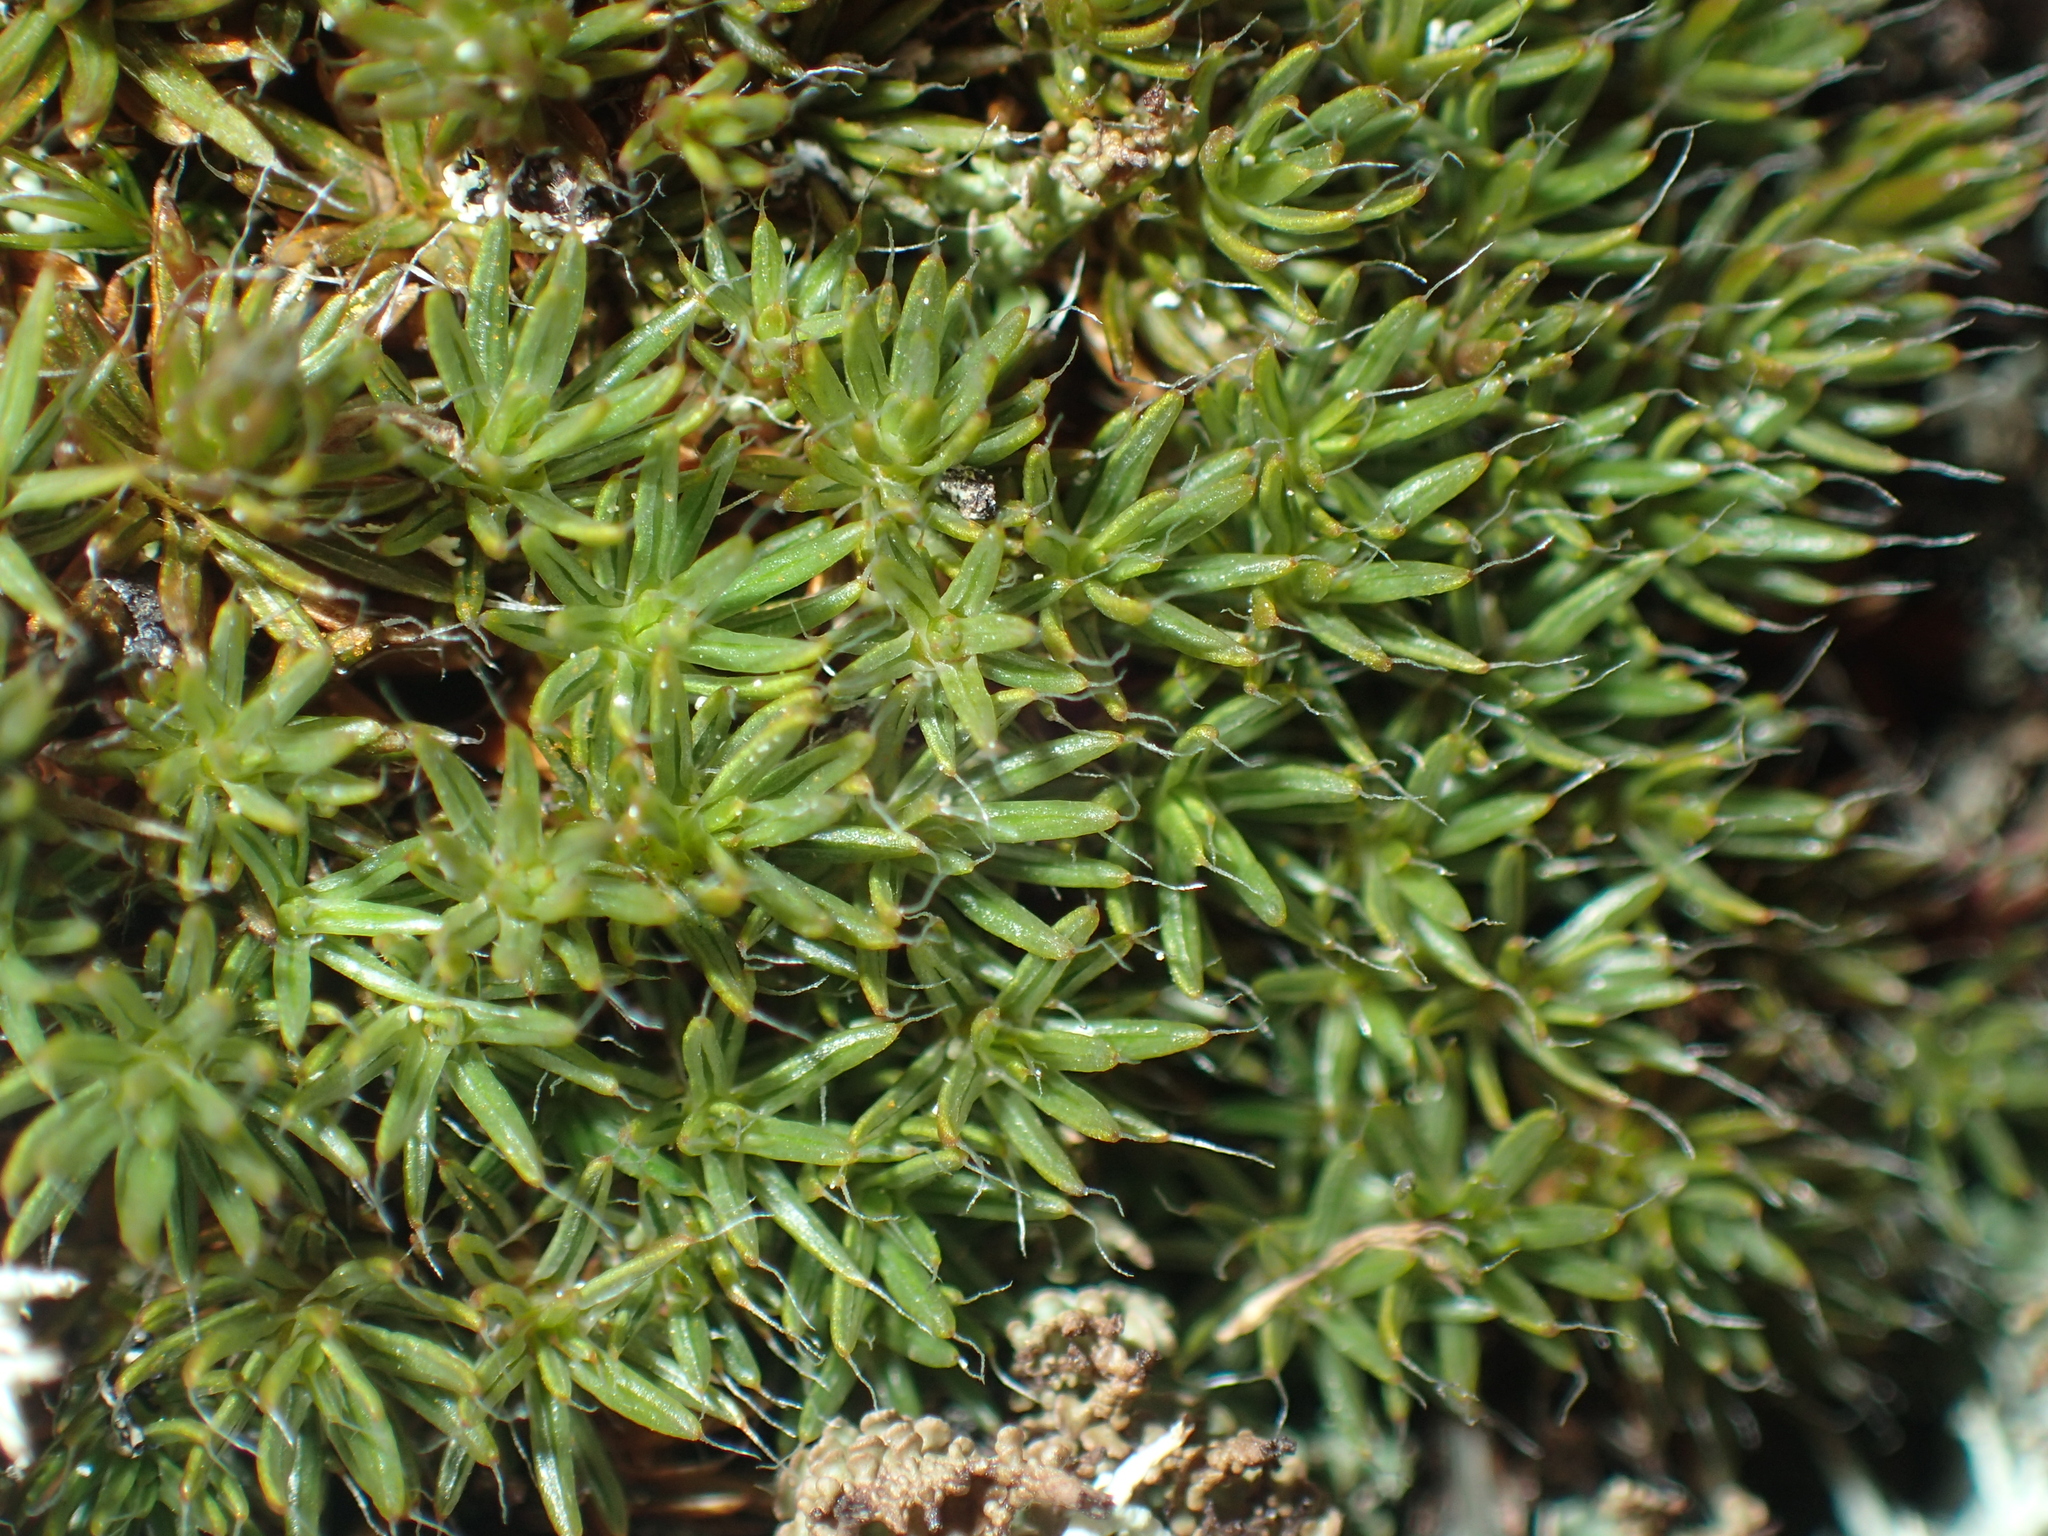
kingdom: Plantae
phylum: Bryophyta
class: Polytrichopsida
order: Polytrichales
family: Polytrichaceae
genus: Polytrichum
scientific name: Polytrichum piliferum
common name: Bristly haircap
